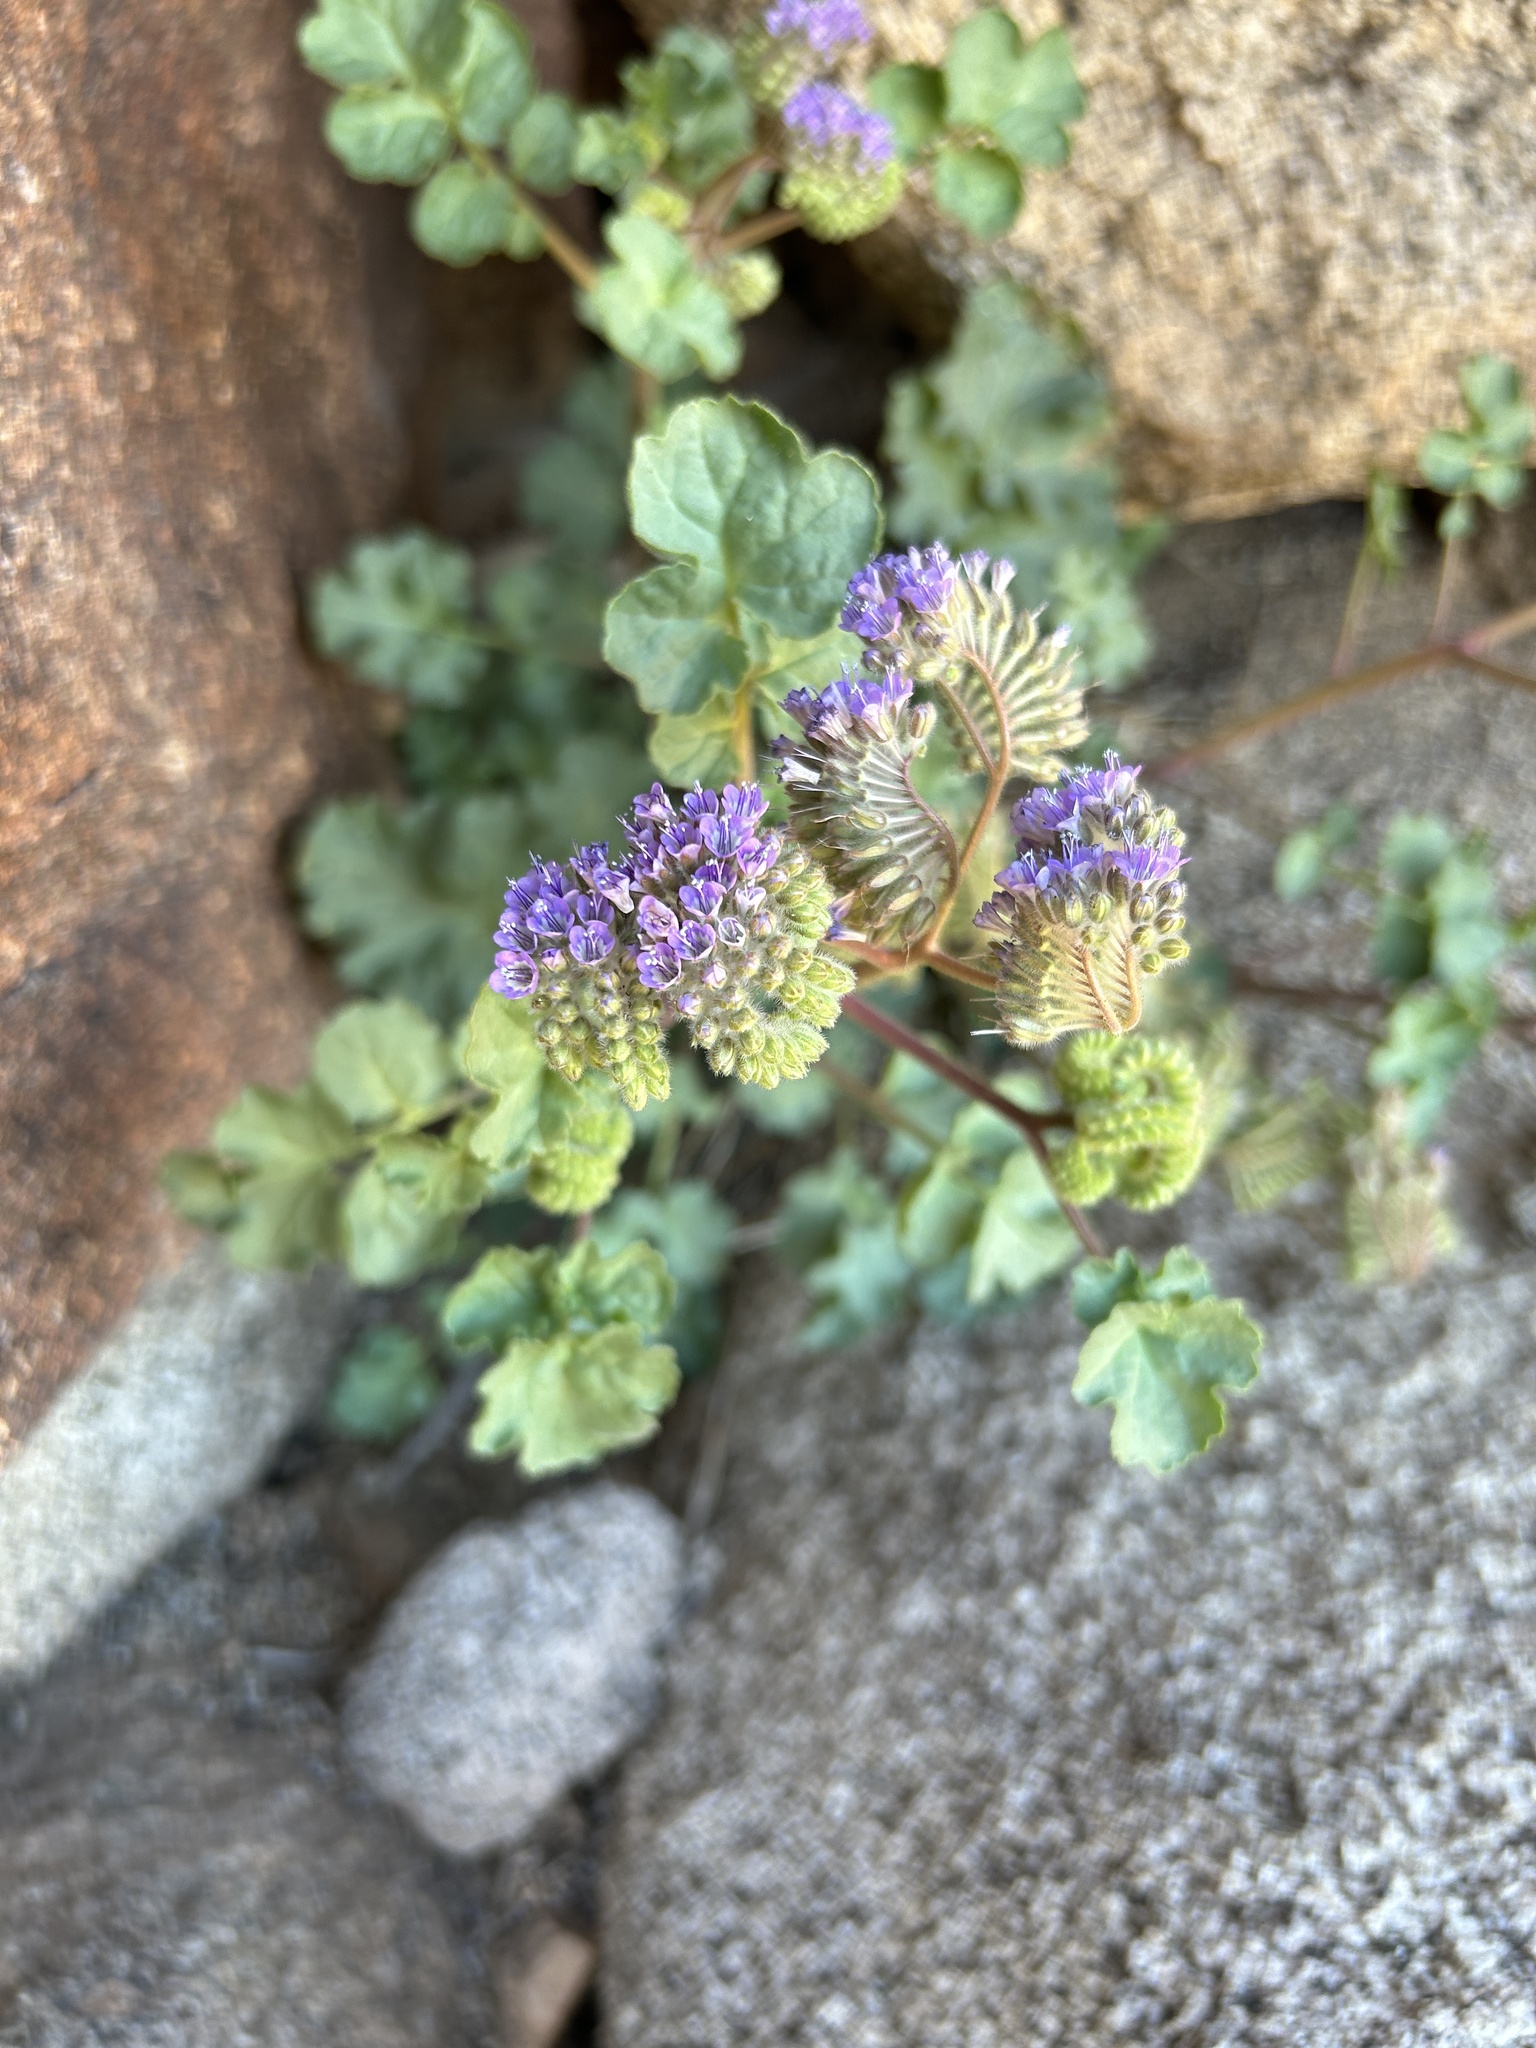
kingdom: Plantae
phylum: Tracheophyta
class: Magnoliopsida
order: Boraginales
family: Hydrophyllaceae
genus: Phacelia
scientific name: Phacelia pedicellata
